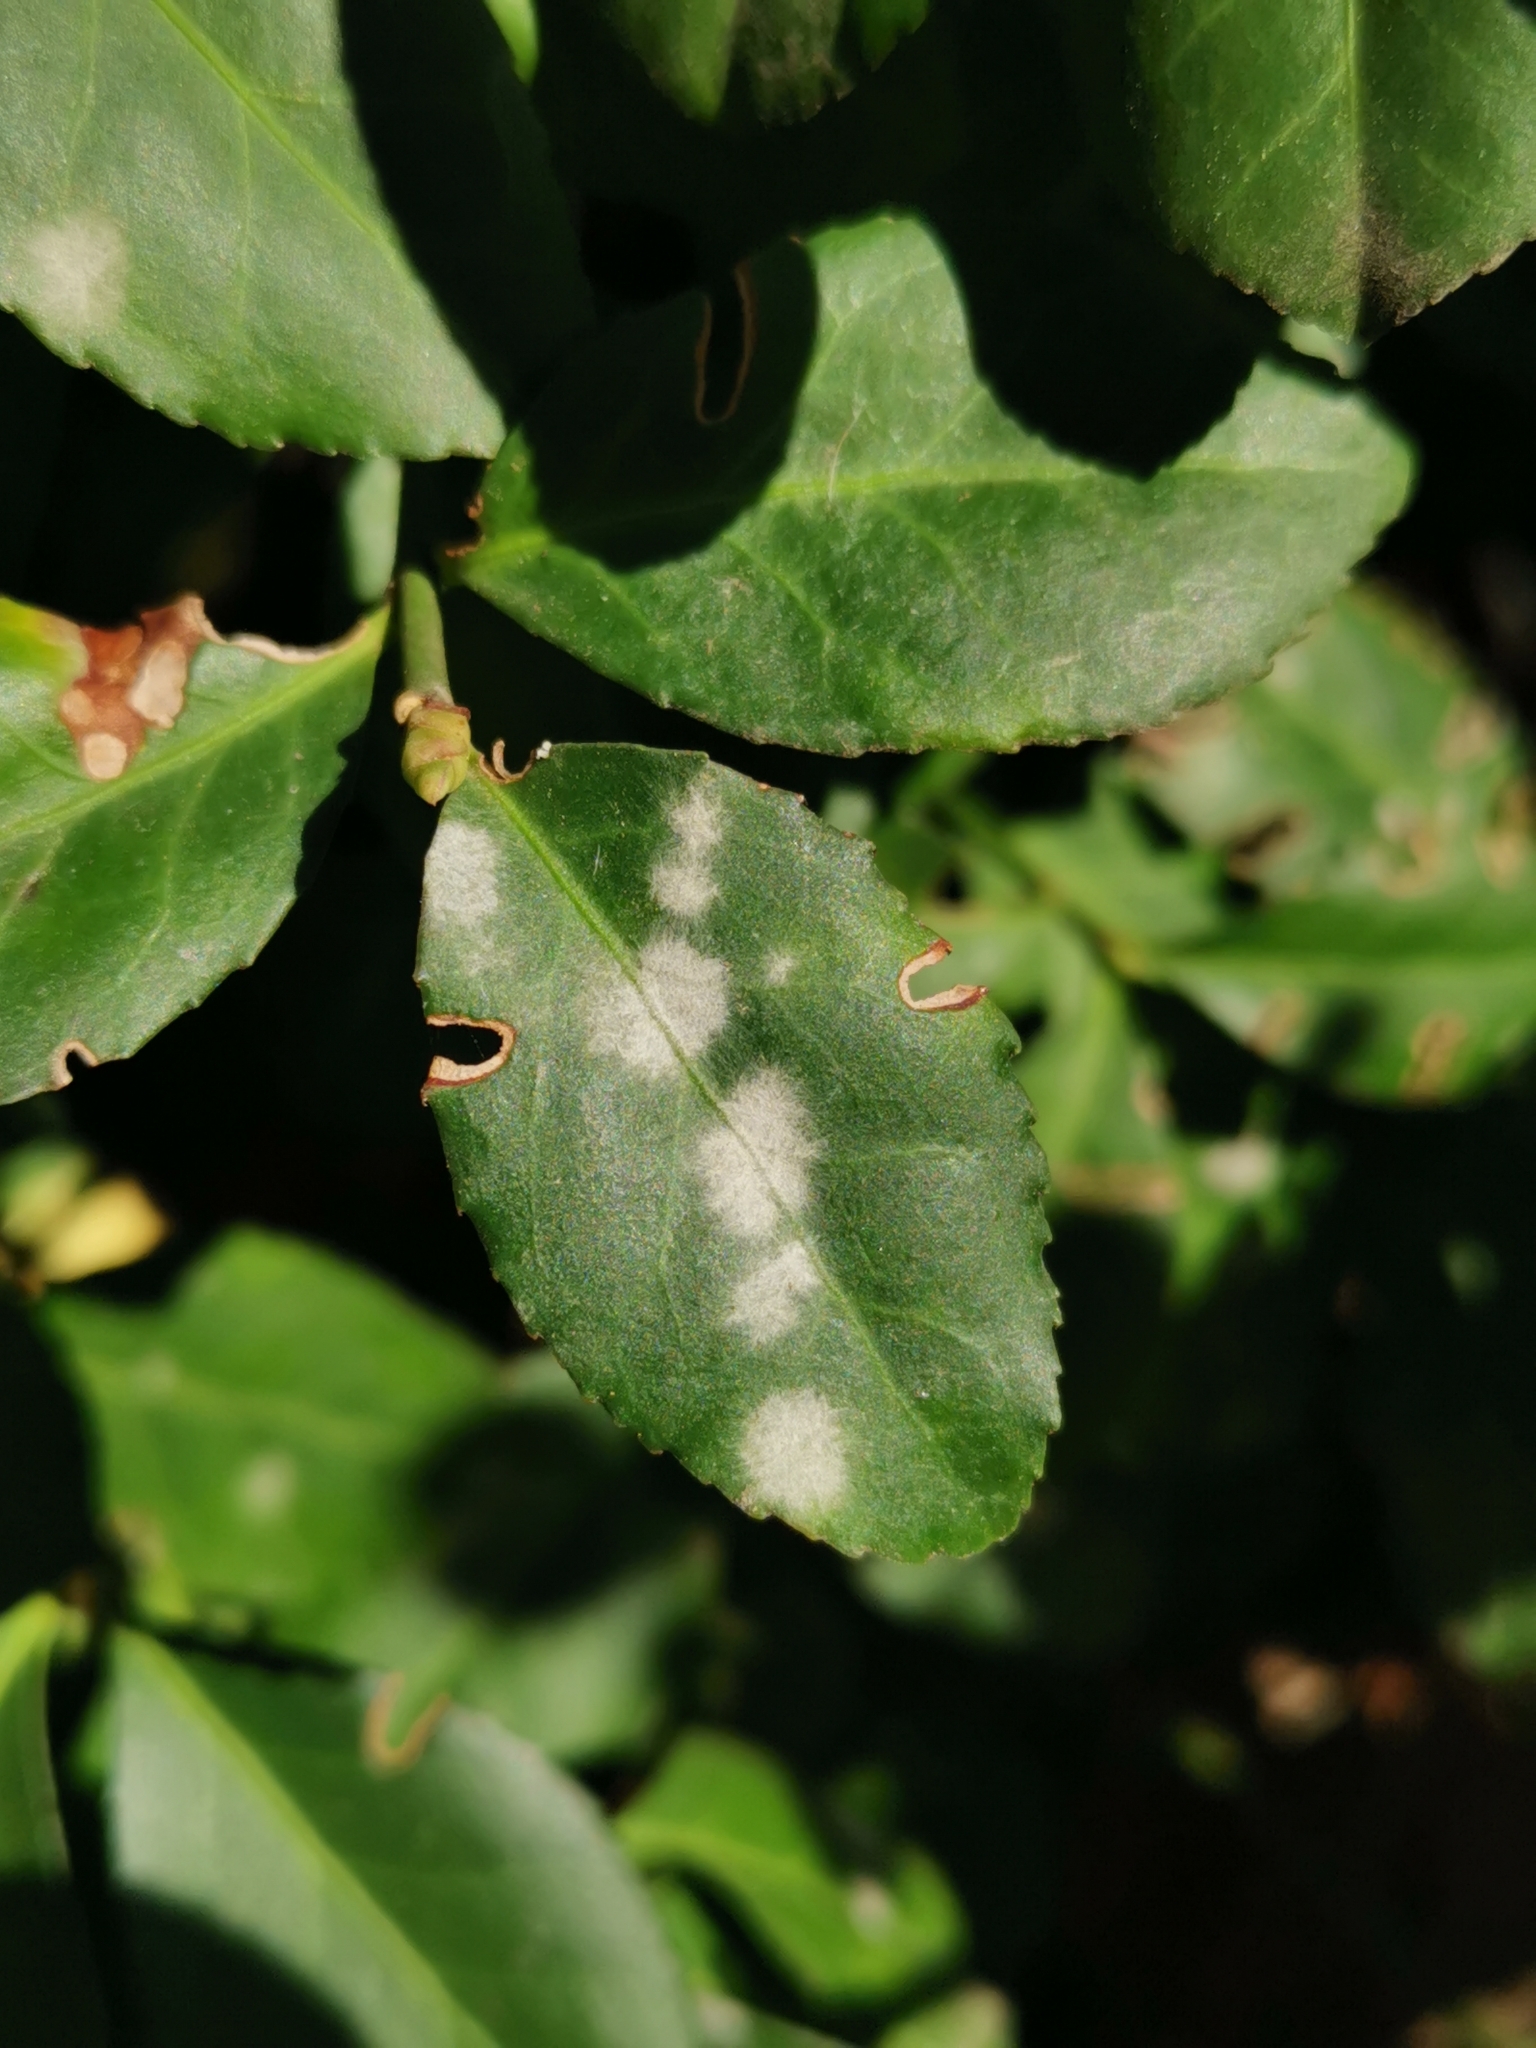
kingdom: Fungi
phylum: Ascomycota
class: Leotiomycetes
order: Helotiales
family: Erysiphaceae
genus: Erysiphe
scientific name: Erysiphe euonymicola
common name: Spindletree mildew
